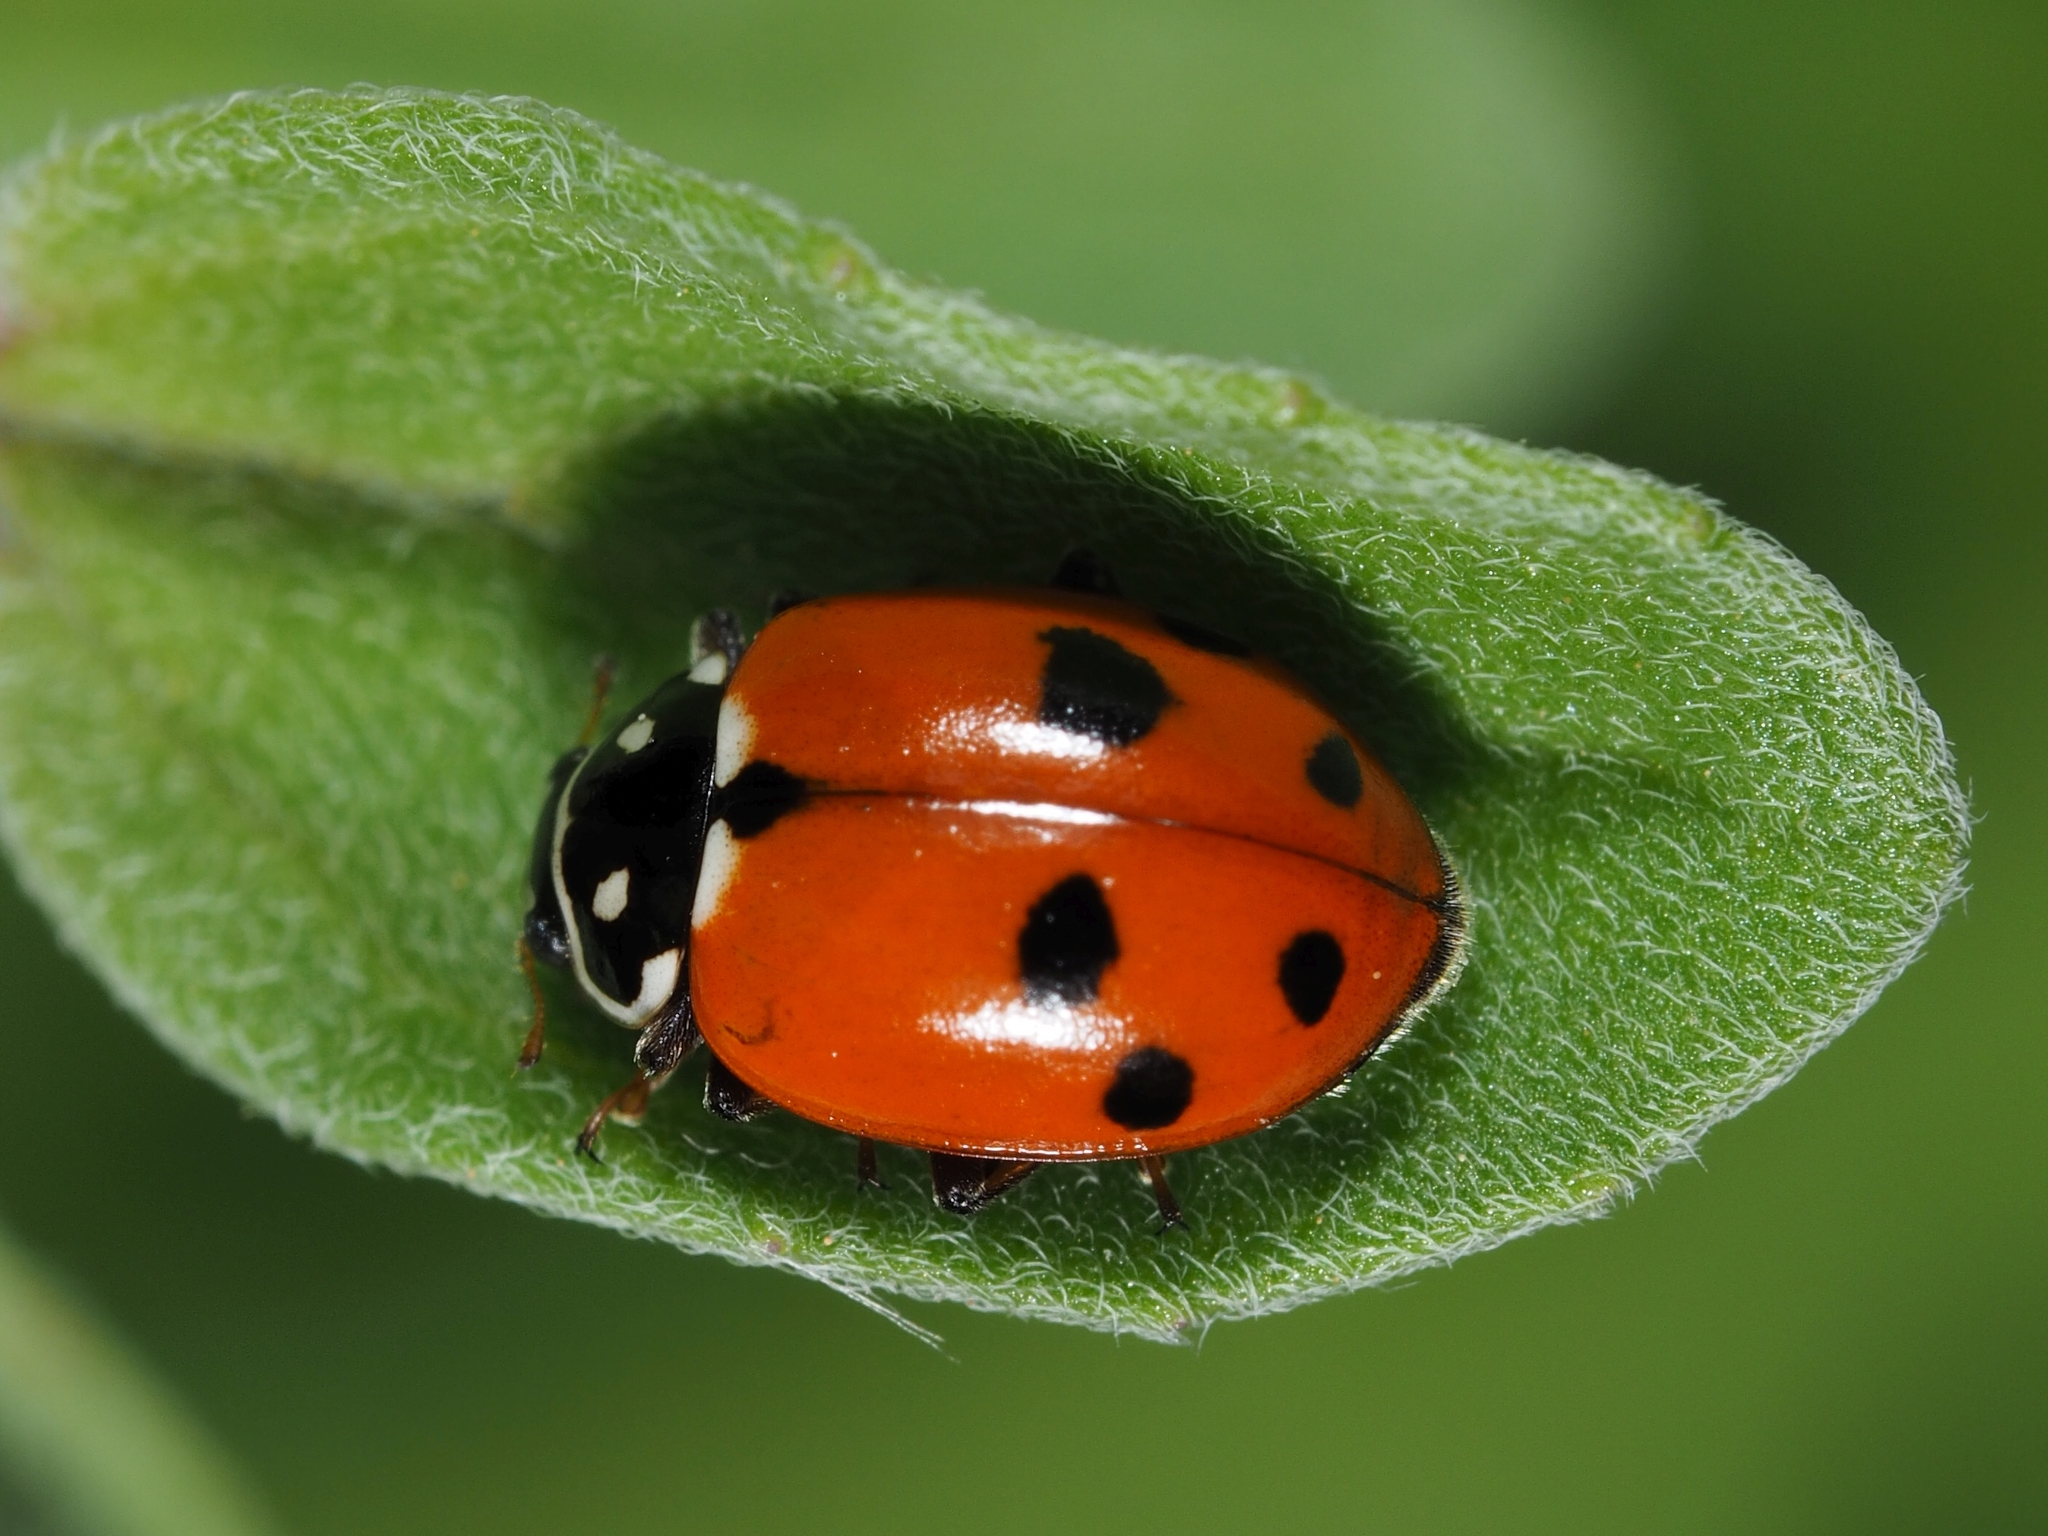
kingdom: Animalia
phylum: Arthropoda
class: Insecta
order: Coleoptera
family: Coccinellidae
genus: Hippodamia
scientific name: Hippodamia variegata
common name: Ladybird beetle
